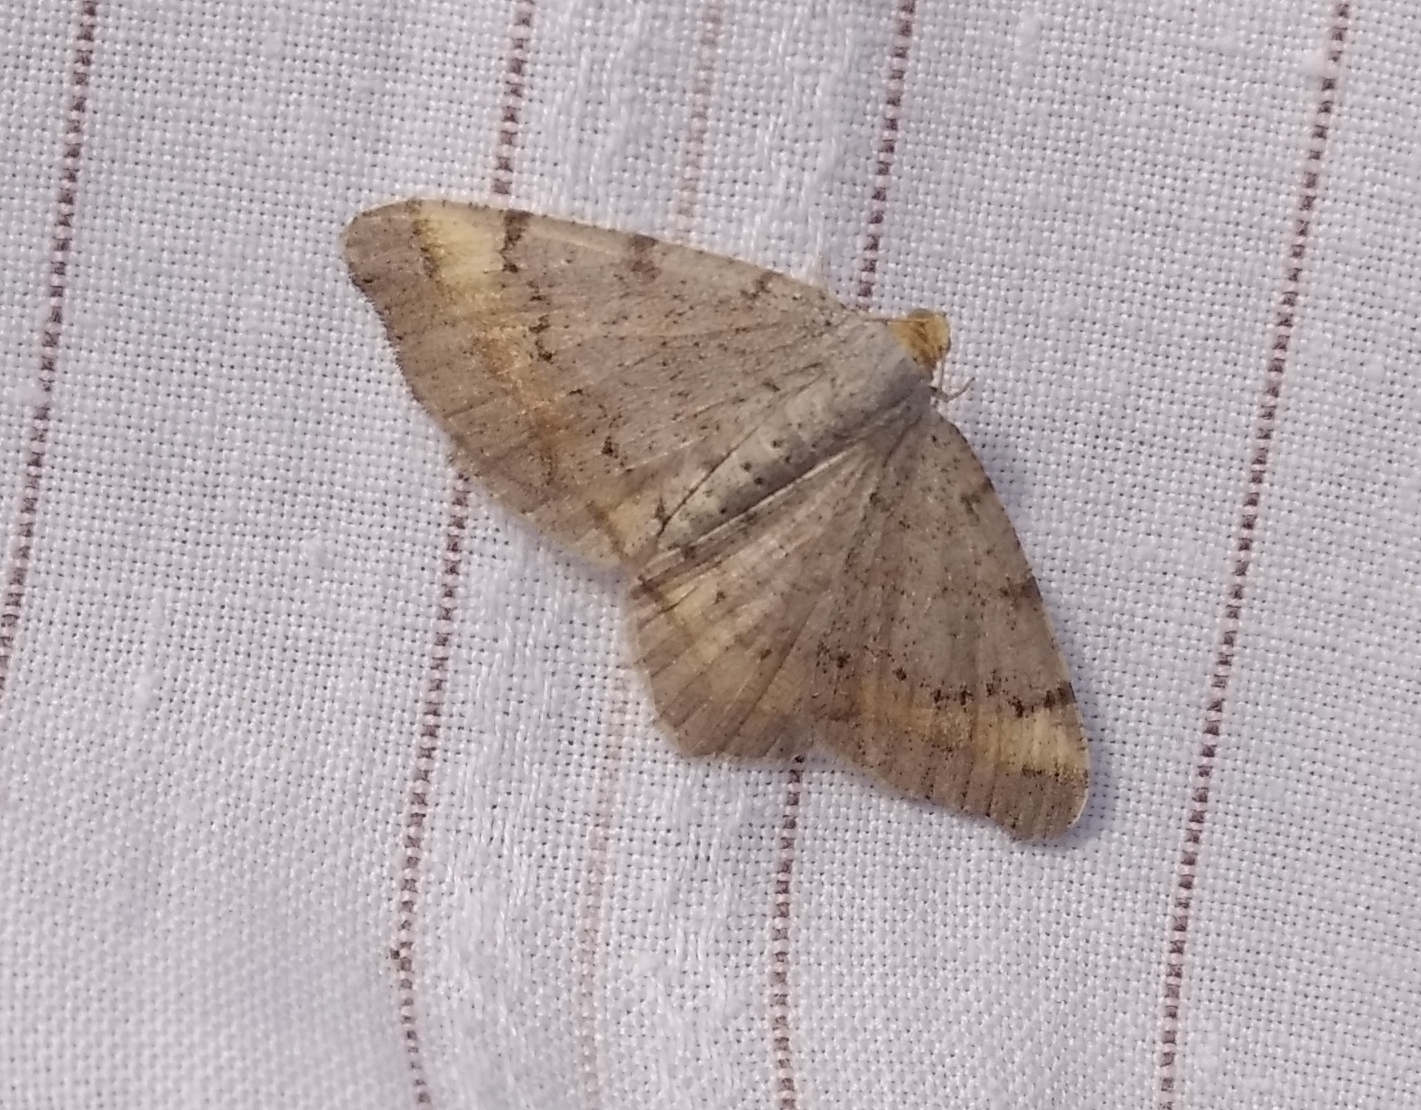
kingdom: Animalia
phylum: Arthropoda
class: Insecta
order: Lepidoptera
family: Geometridae
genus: Macaria
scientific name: Macaria liturata
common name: Tawny-barred angle
